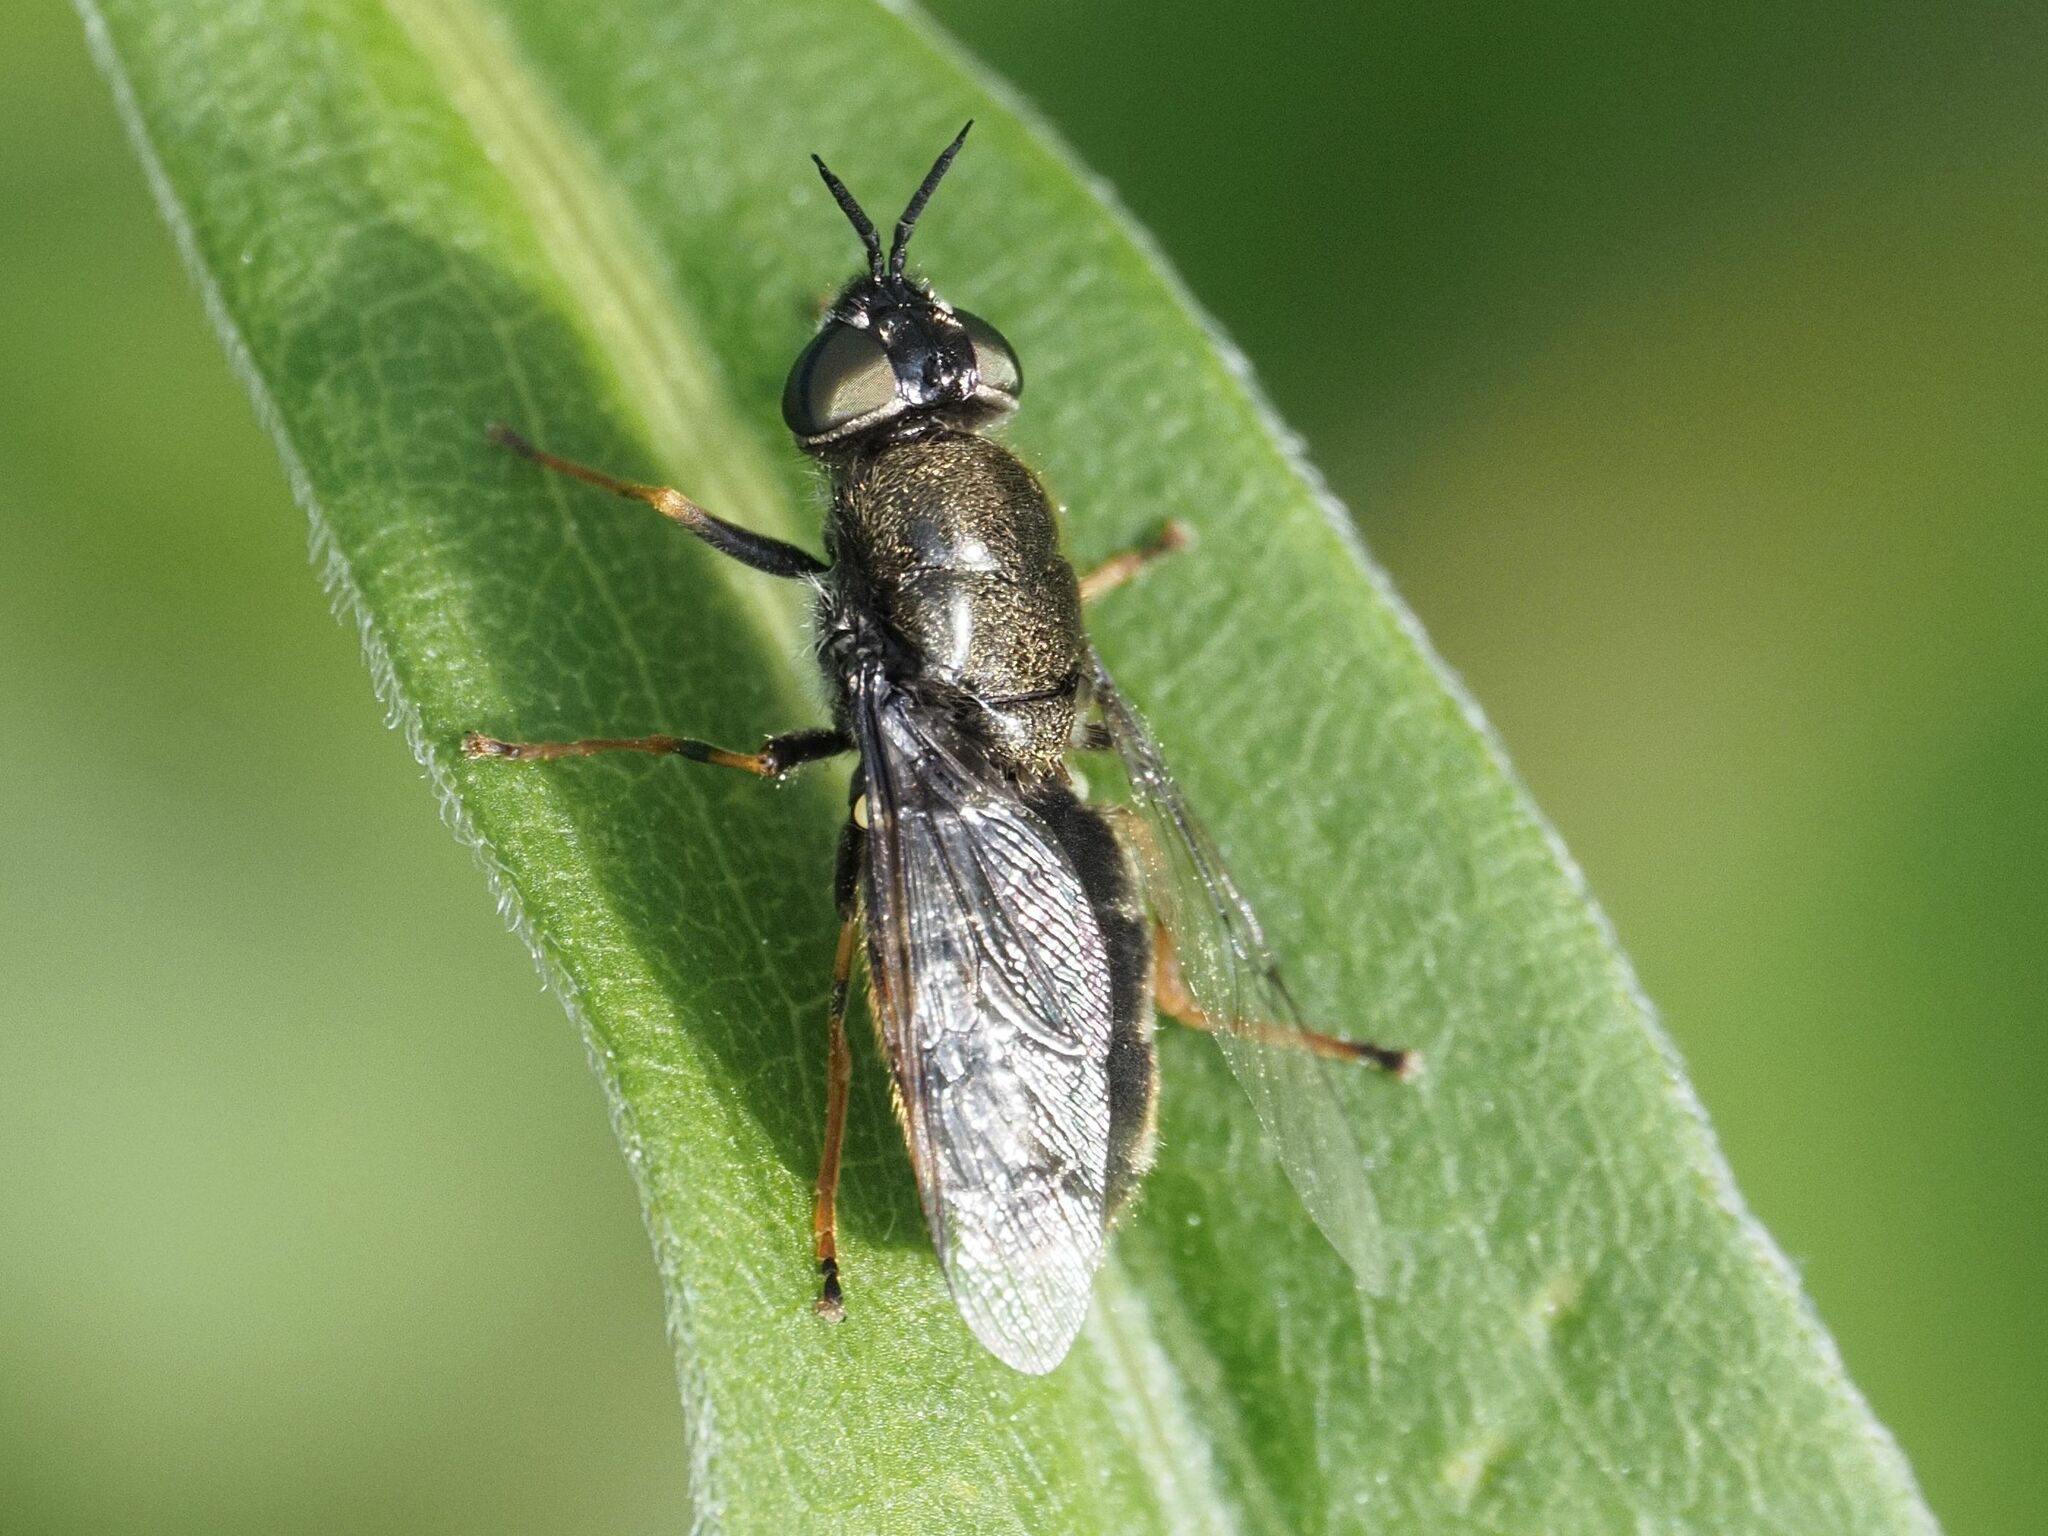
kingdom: Animalia
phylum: Arthropoda
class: Insecta
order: Diptera
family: Stratiomyidae
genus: Odontomyia
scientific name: Odontomyia tigrina
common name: Black colonel
